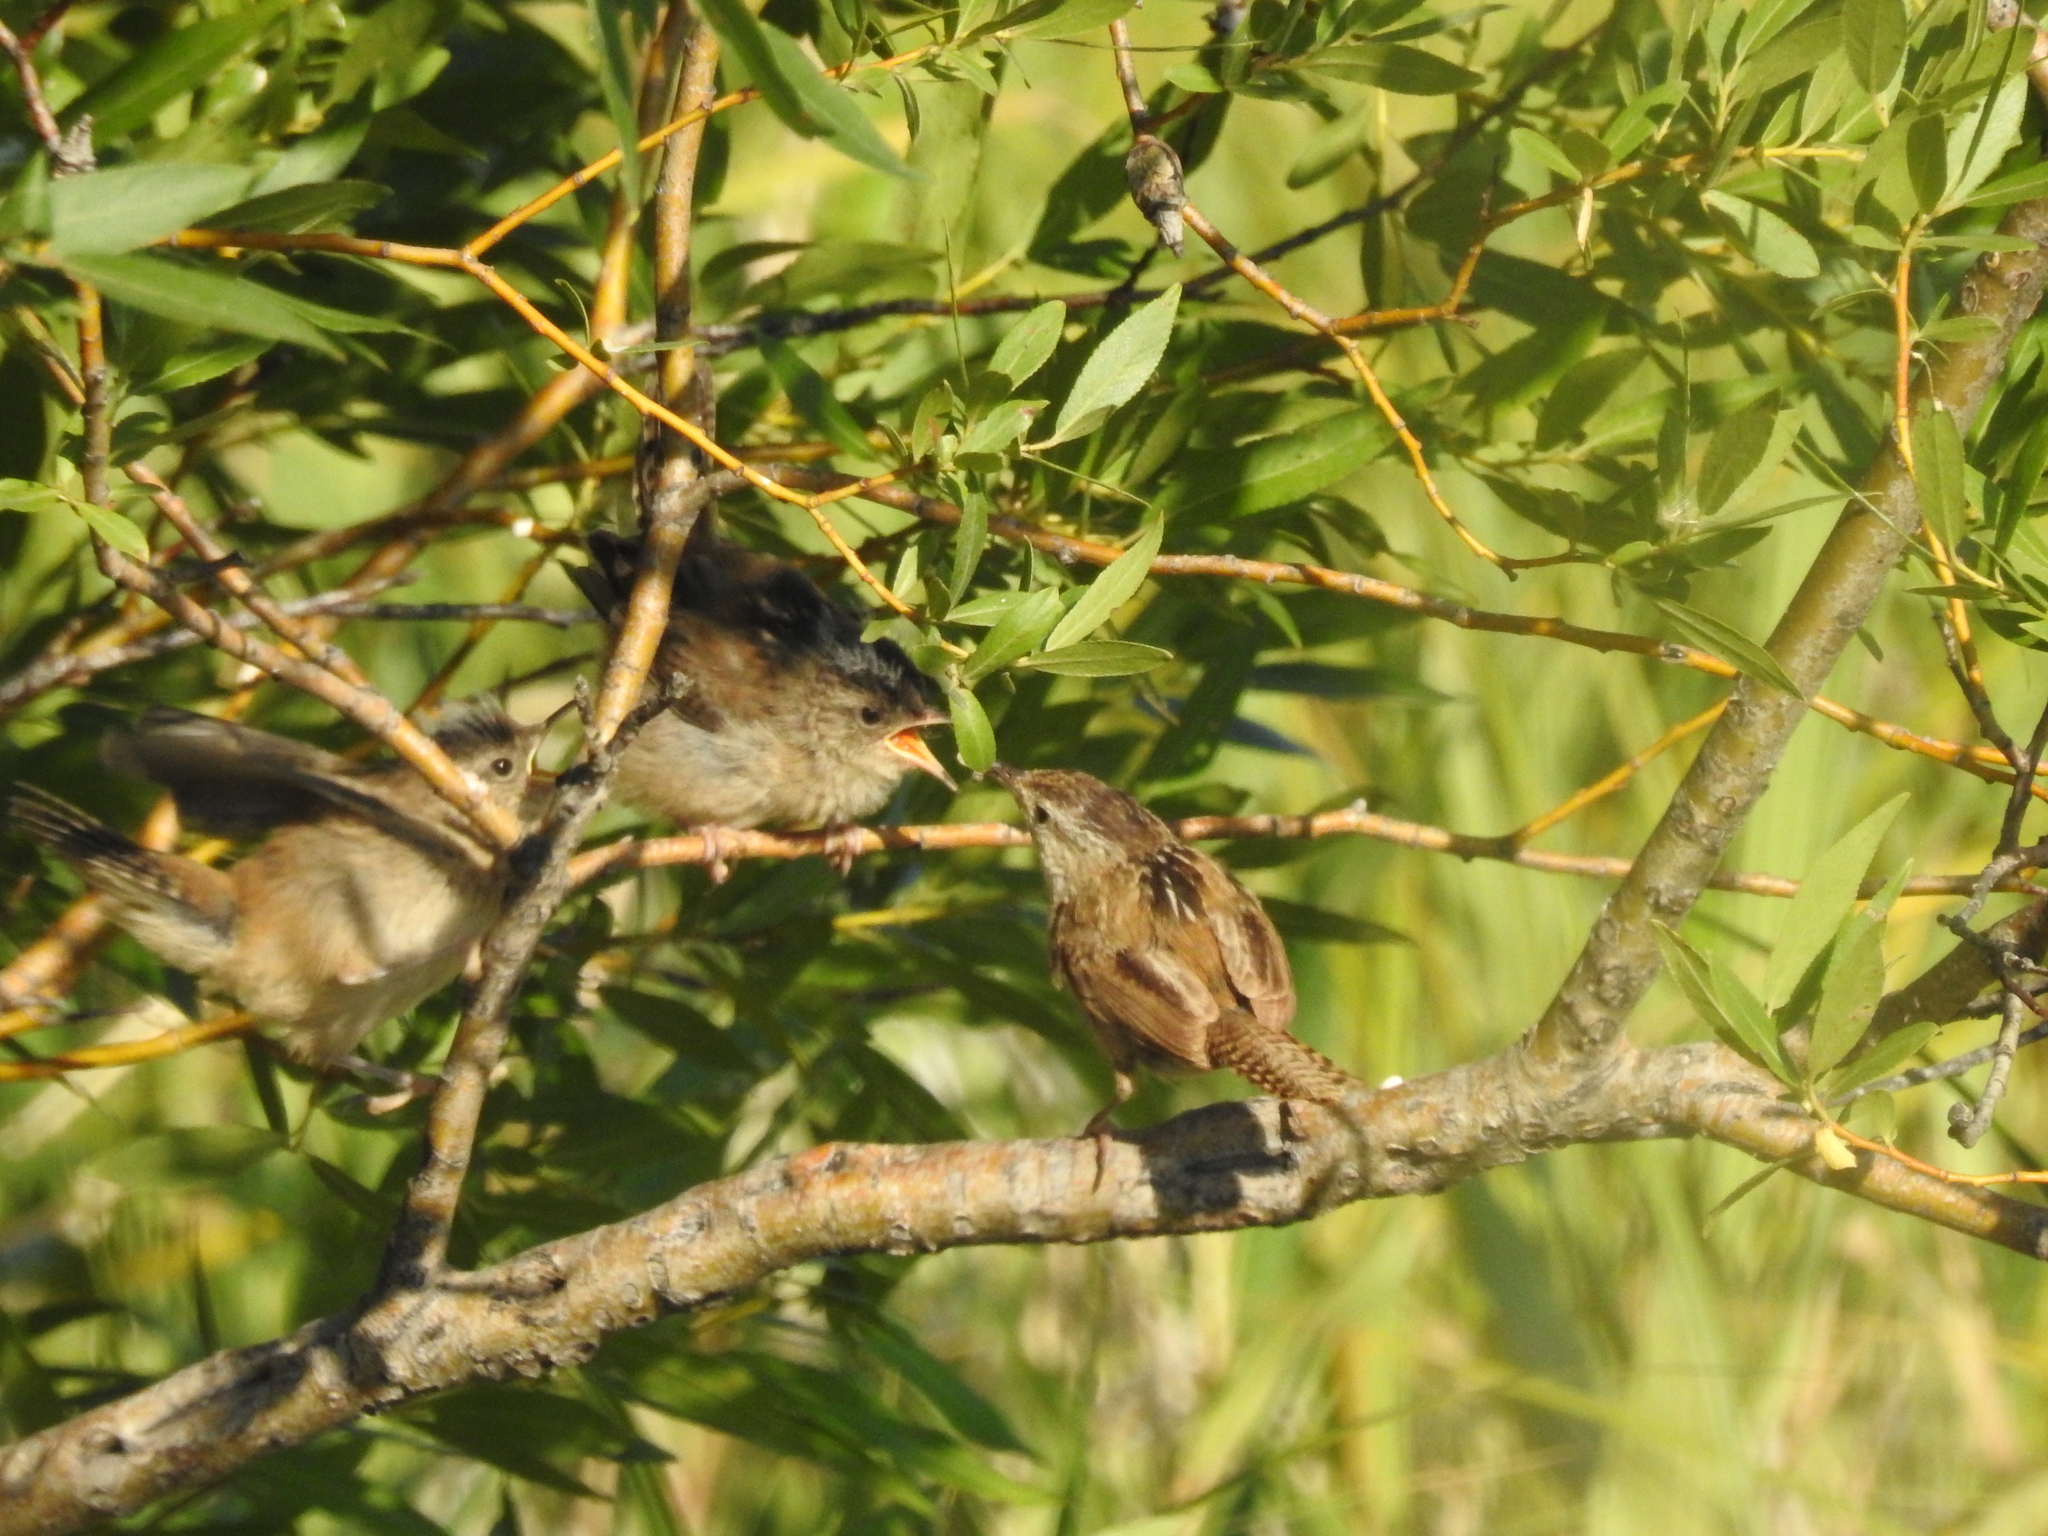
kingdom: Animalia
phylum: Chordata
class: Aves
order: Passeriformes
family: Troglodytidae
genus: Cistothorus
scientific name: Cistothorus palustris
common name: Marsh wren
